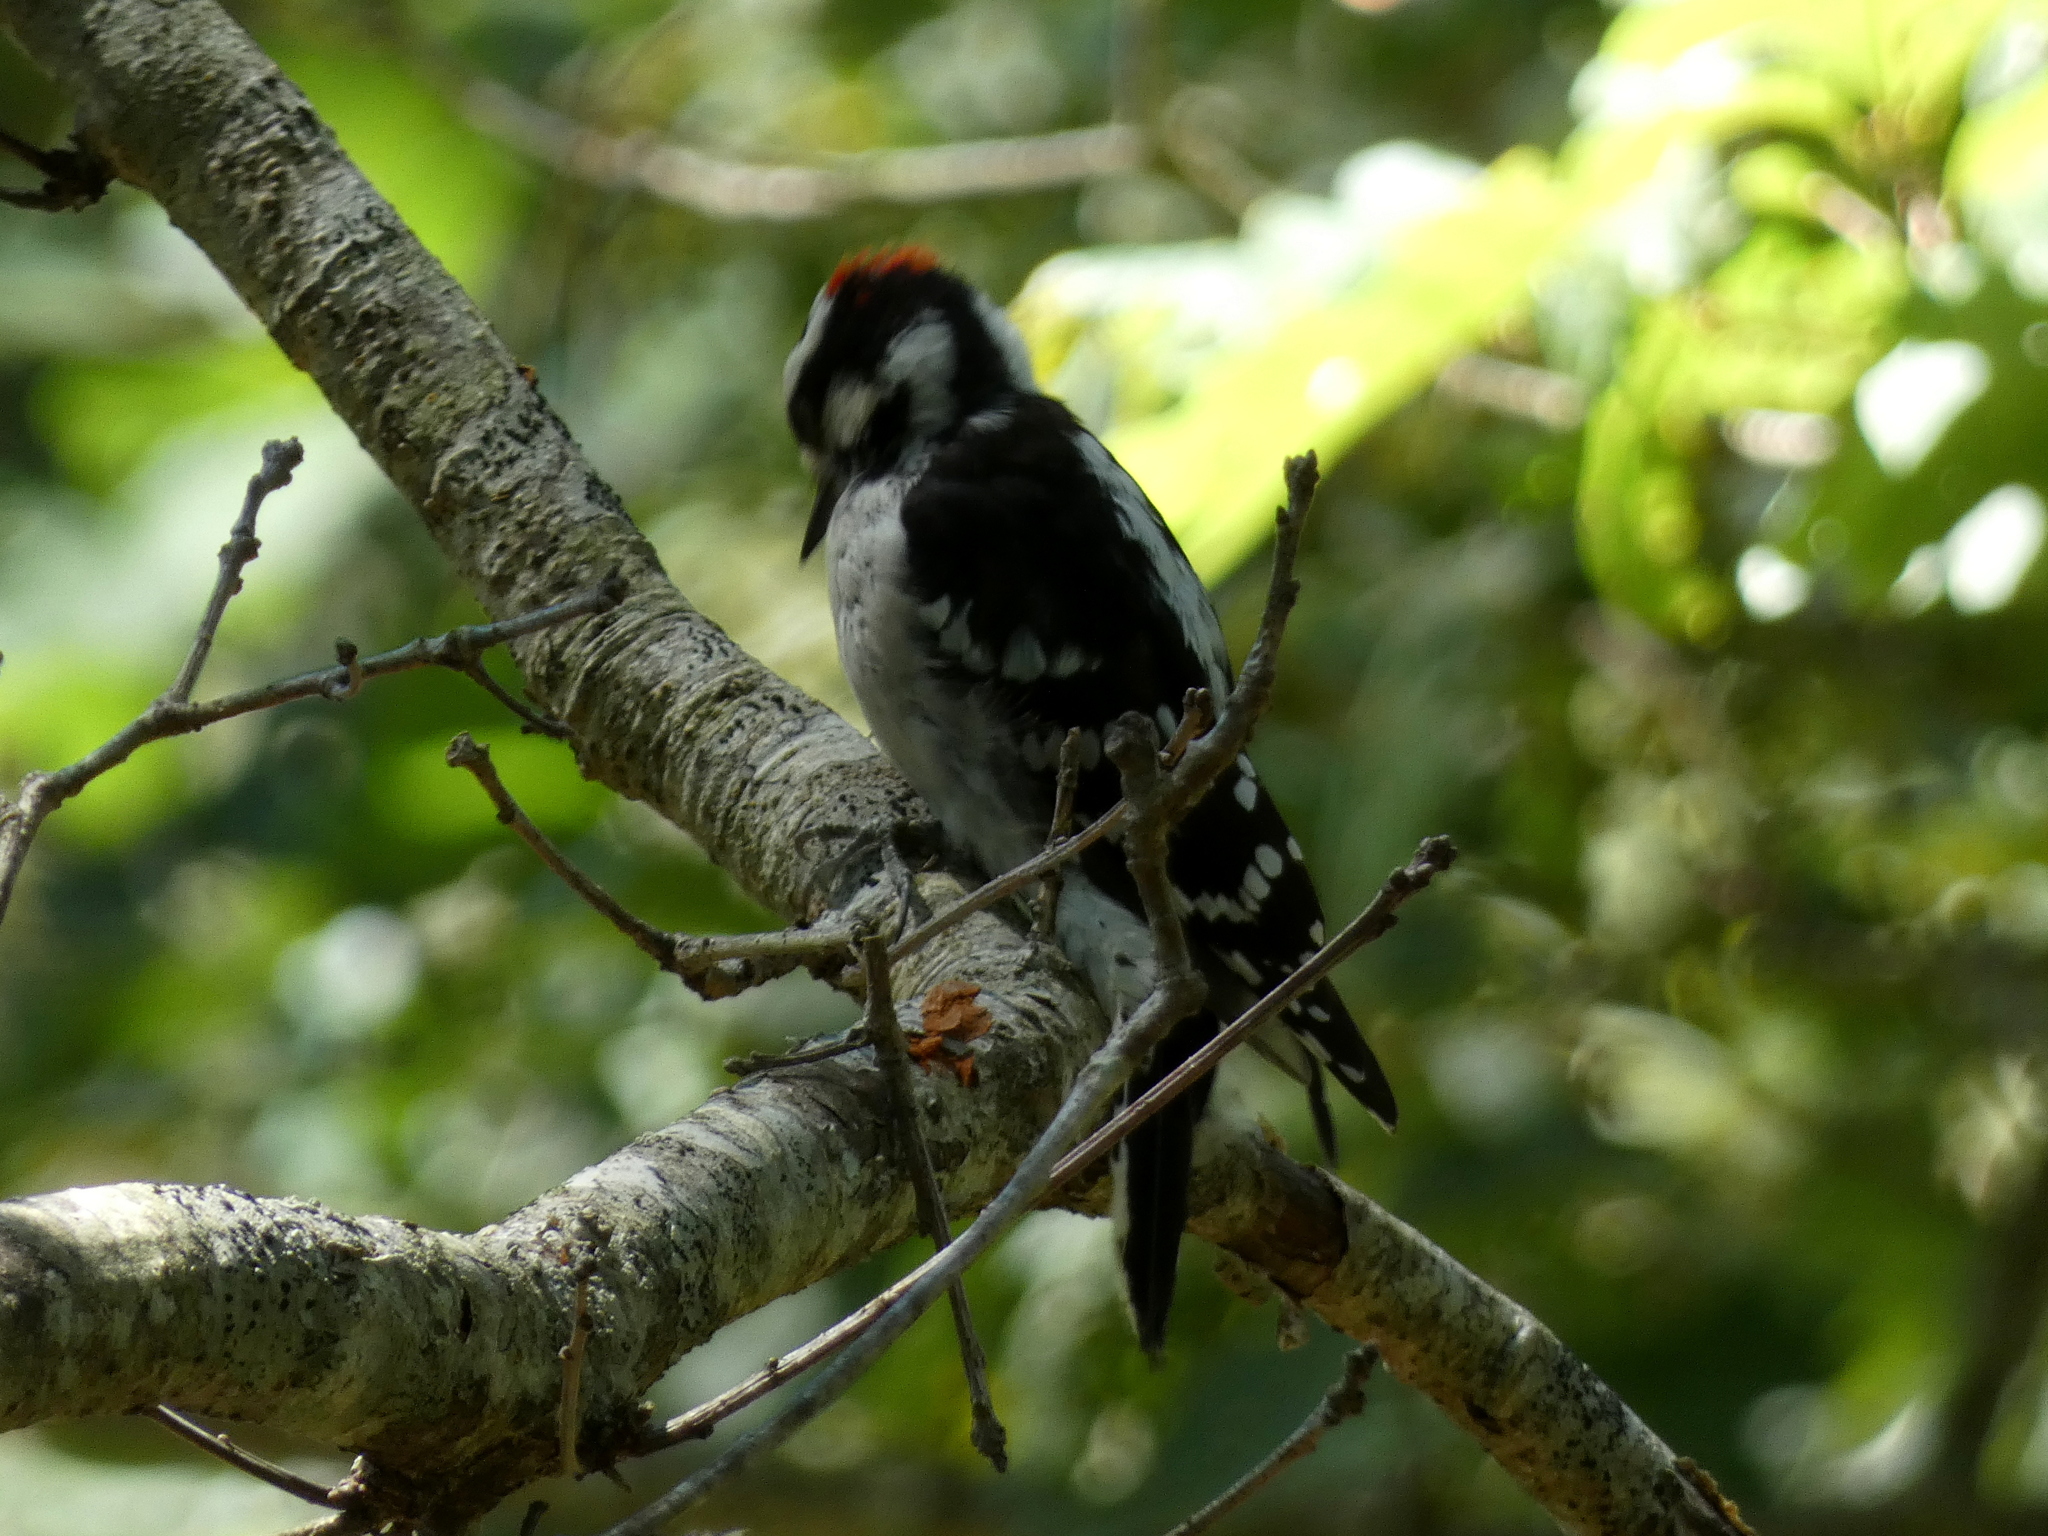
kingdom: Animalia
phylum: Chordata
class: Aves
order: Piciformes
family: Picidae
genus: Dryobates
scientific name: Dryobates pubescens
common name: Downy woodpecker
